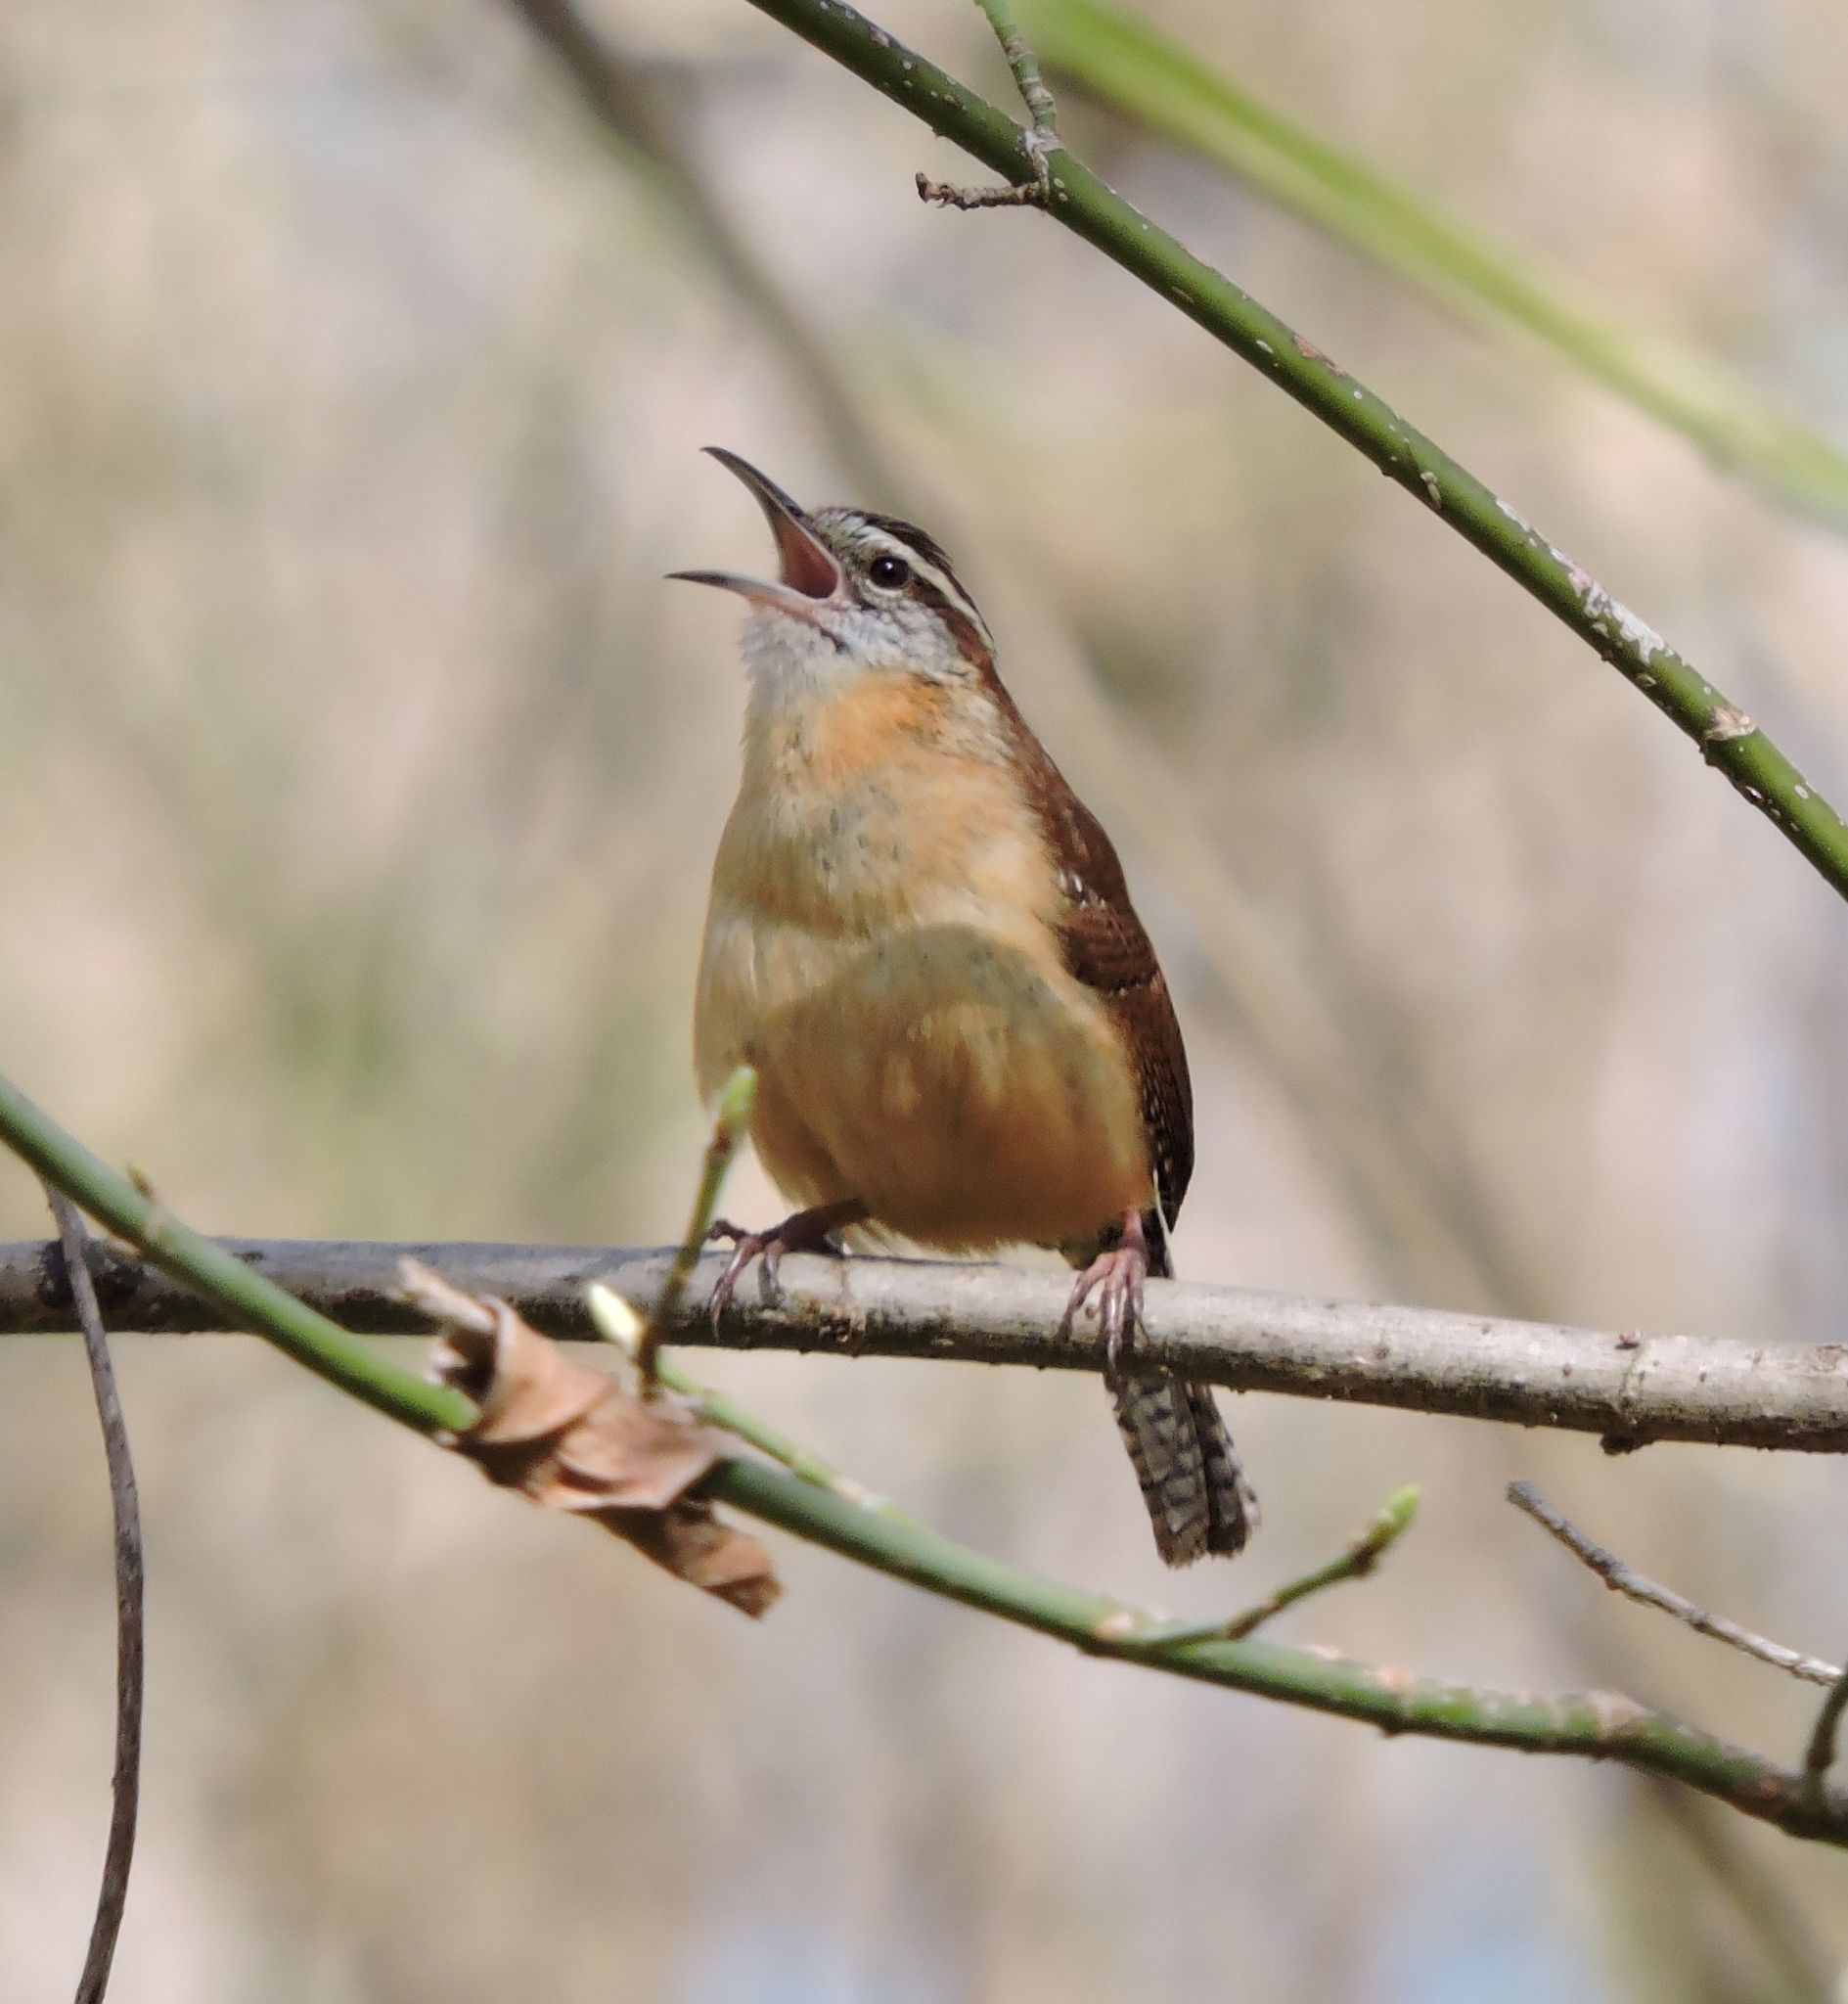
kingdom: Animalia
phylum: Chordata
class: Aves
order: Passeriformes
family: Troglodytidae
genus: Thryothorus
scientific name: Thryothorus ludovicianus
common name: Carolina wren
